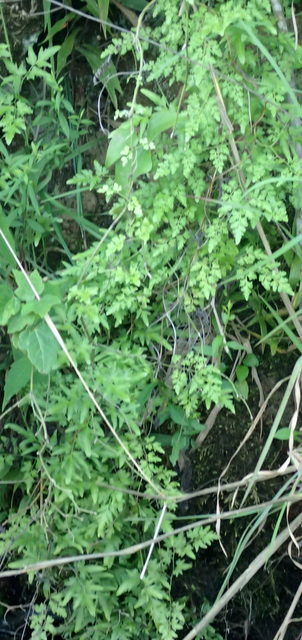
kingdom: Plantae
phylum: Tracheophyta
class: Polypodiopsida
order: Schizaeales
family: Lygodiaceae
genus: Lygodium
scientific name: Lygodium japonicum
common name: Japanese climbing fern
